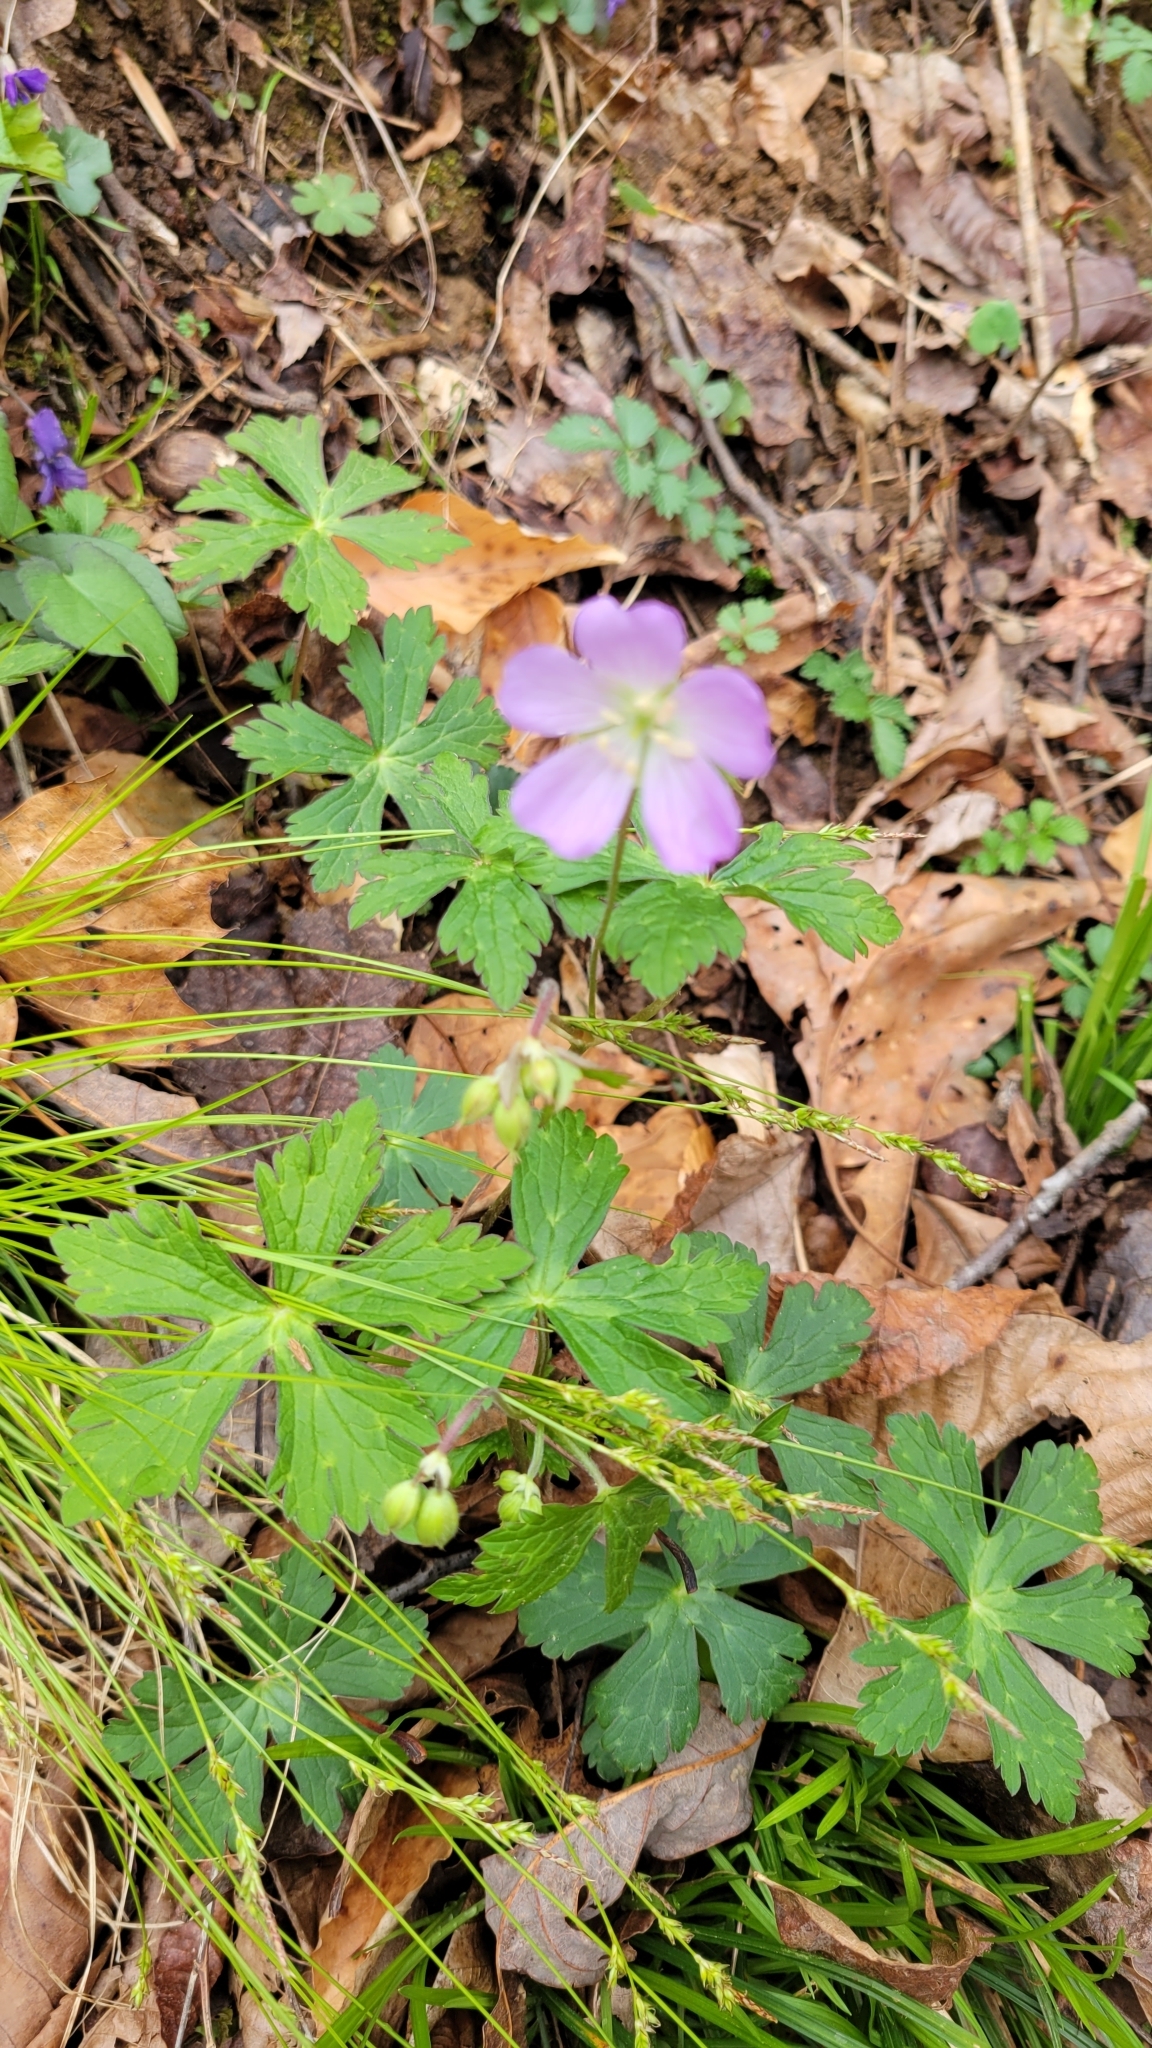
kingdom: Plantae
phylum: Tracheophyta
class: Magnoliopsida
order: Geraniales
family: Geraniaceae
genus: Geranium
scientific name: Geranium maculatum
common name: Spotted geranium
